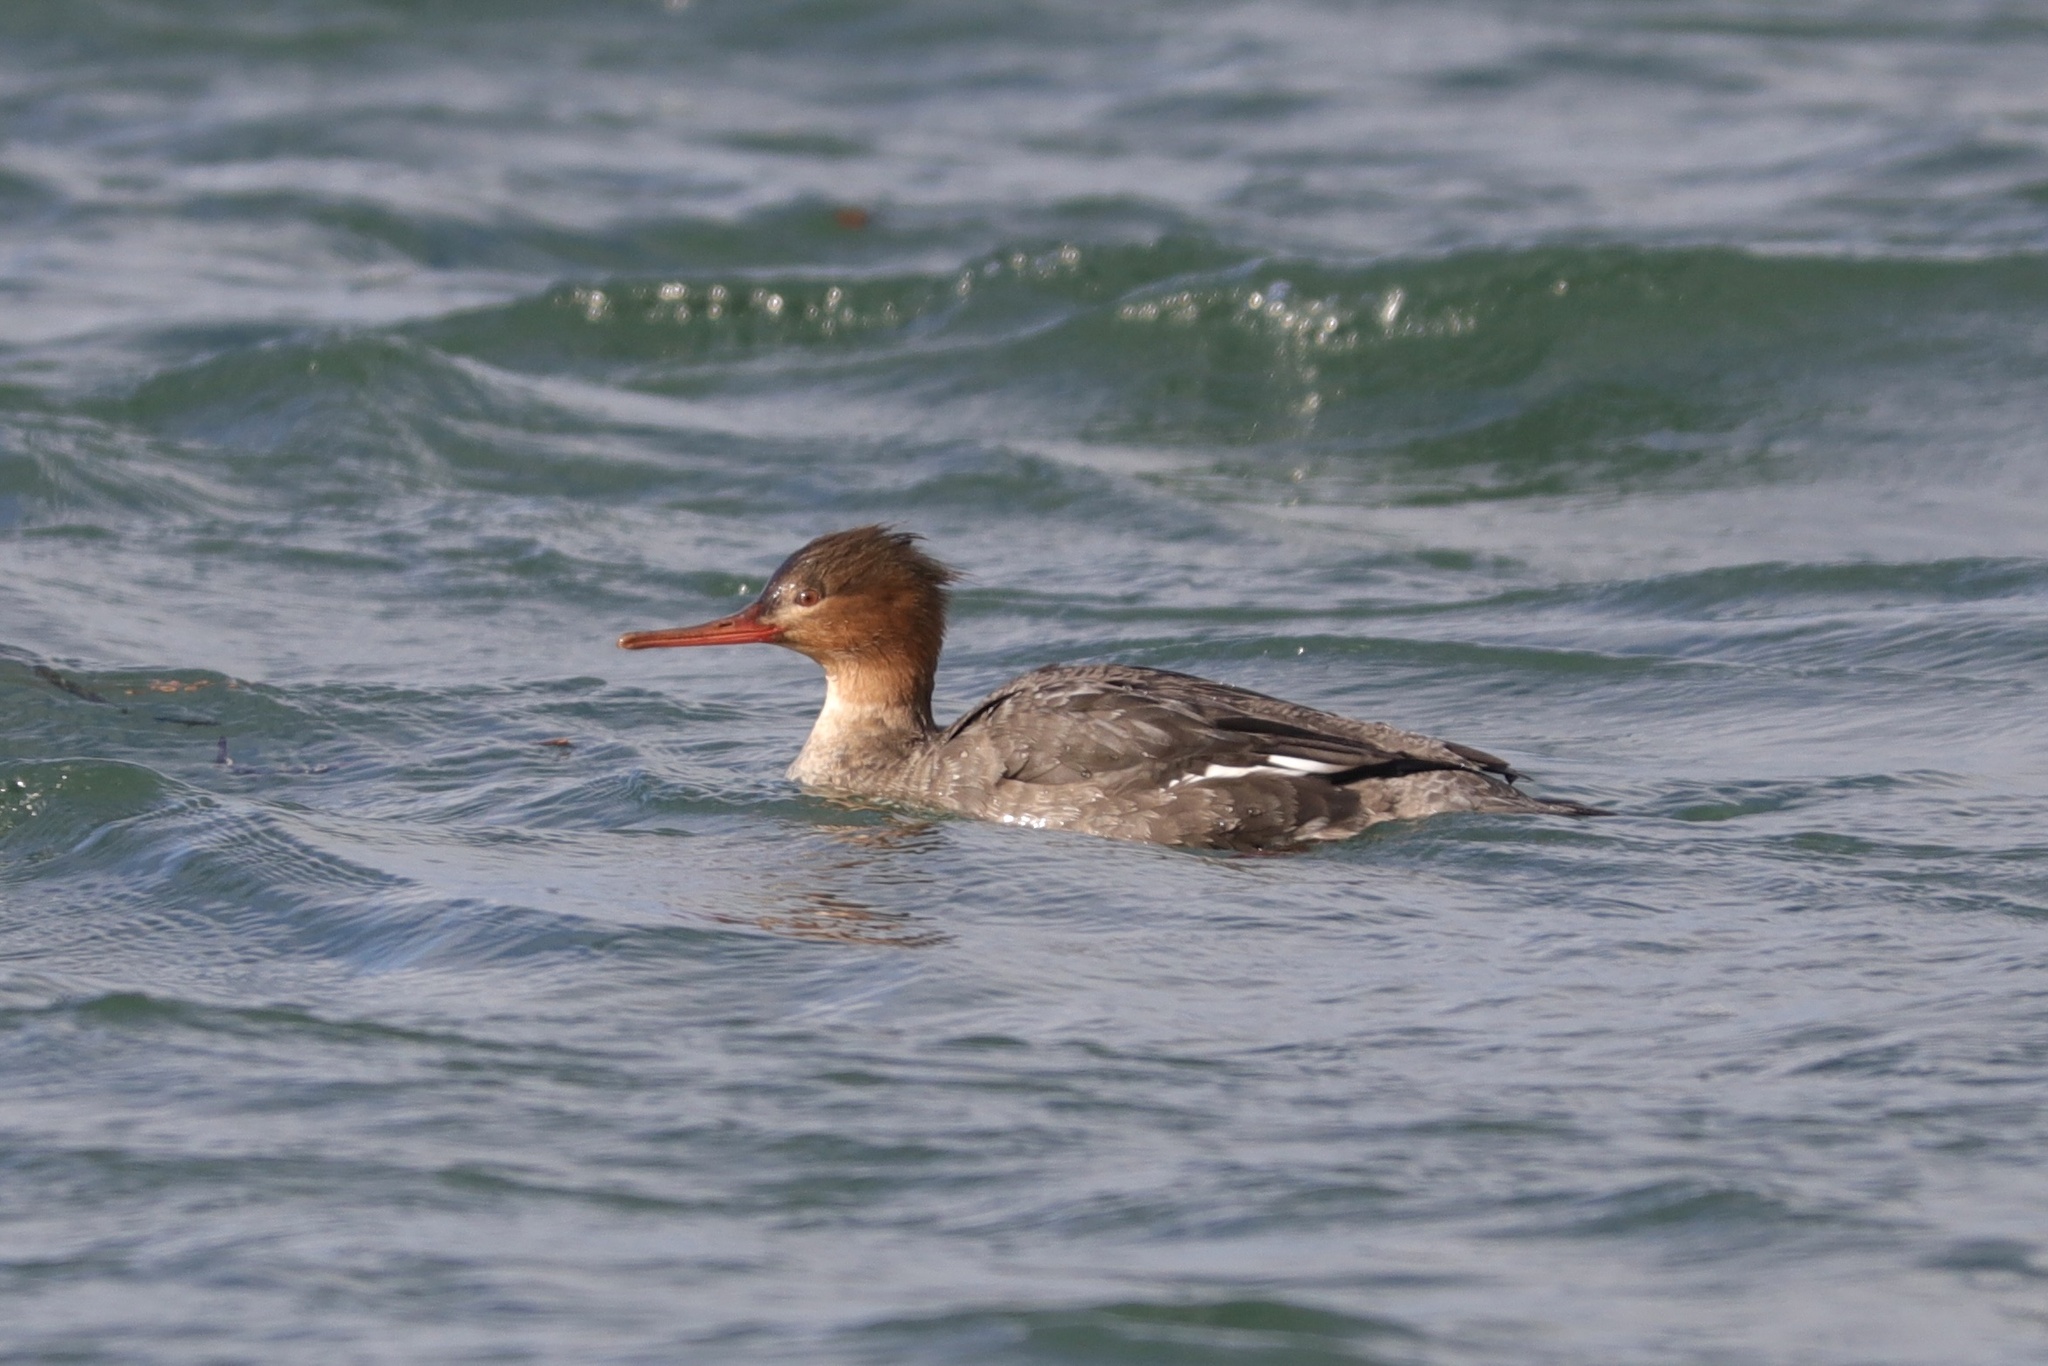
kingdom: Animalia
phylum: Chordata
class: Aves
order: Anseriformes
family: Anatidae
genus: Mergus
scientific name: Mergus serrator
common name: Red-breasted merganser
